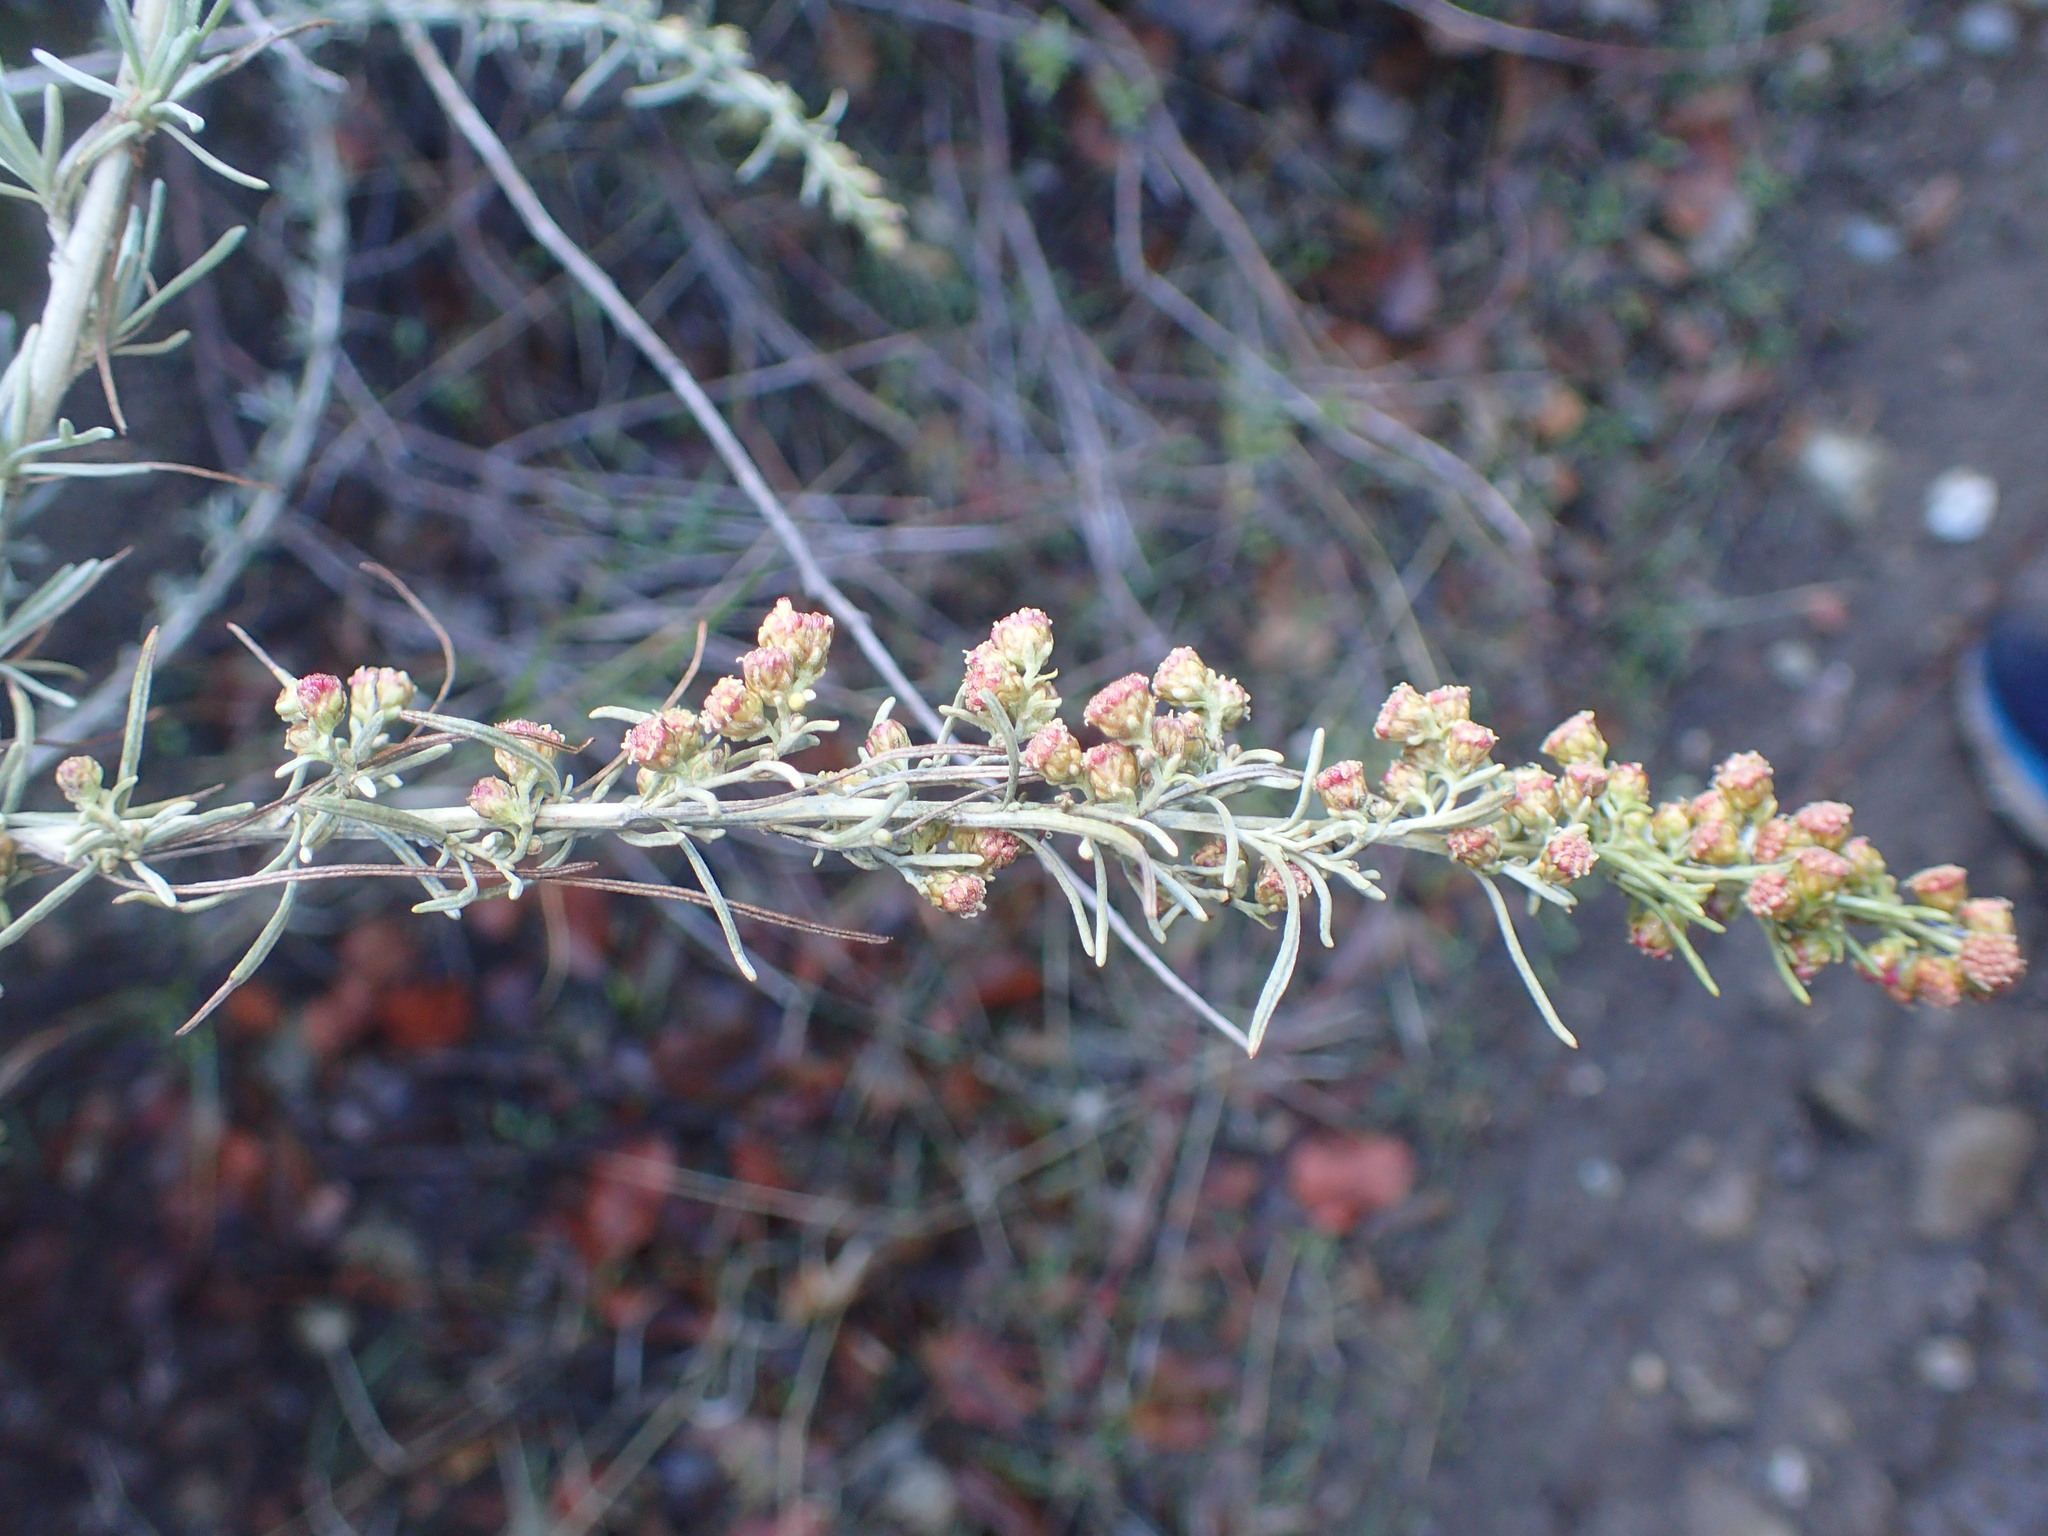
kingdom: Plantae
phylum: Tracheophyta
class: Magnoliopsida
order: Asterales
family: Asteraceae
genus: Artemisia
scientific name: Artemisia californica
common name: California sagebrush
